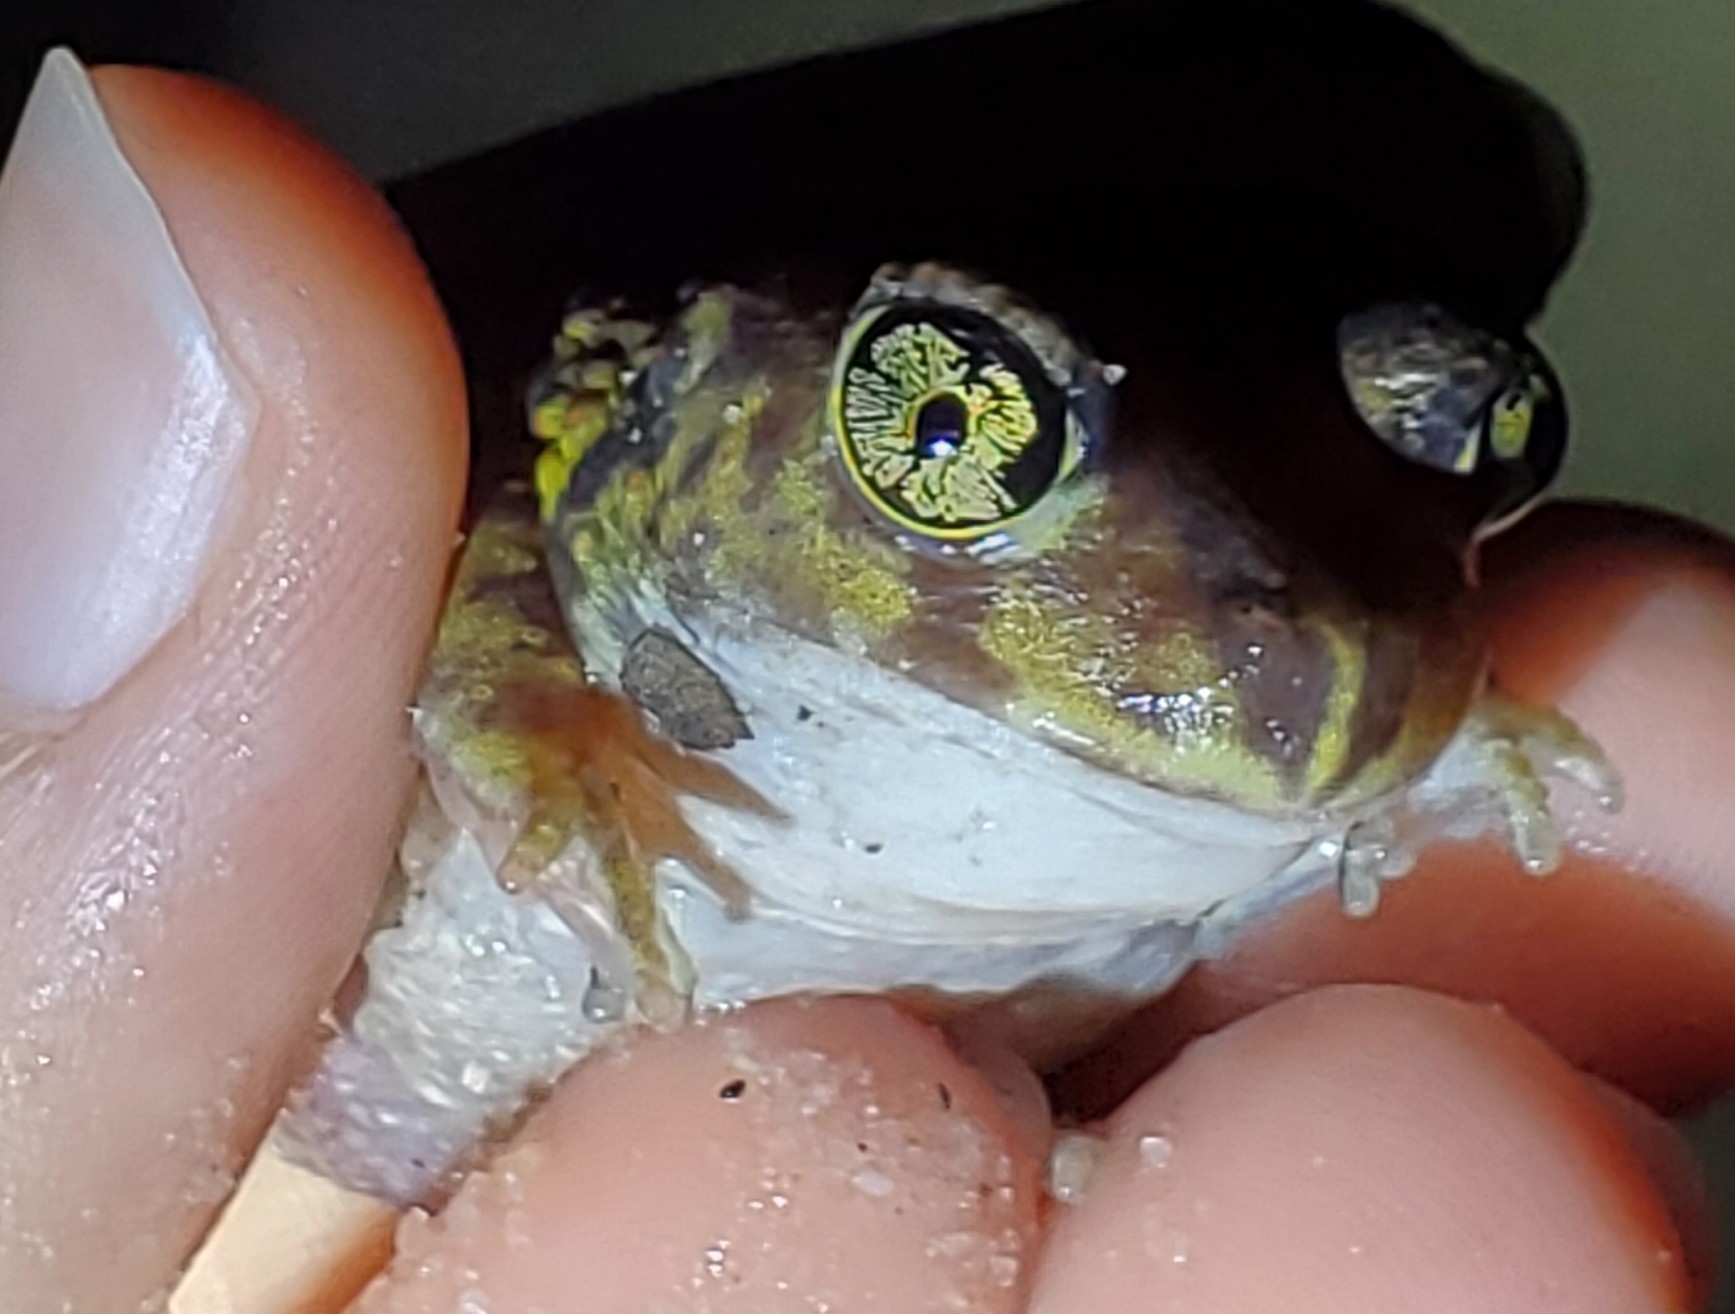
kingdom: Animalia
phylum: Chordata
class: Amphibia
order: Anura
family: Scaphiopodidae
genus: Scaphiopus
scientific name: Scaphiopus holbrookii
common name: Eastern spadefoot toad
